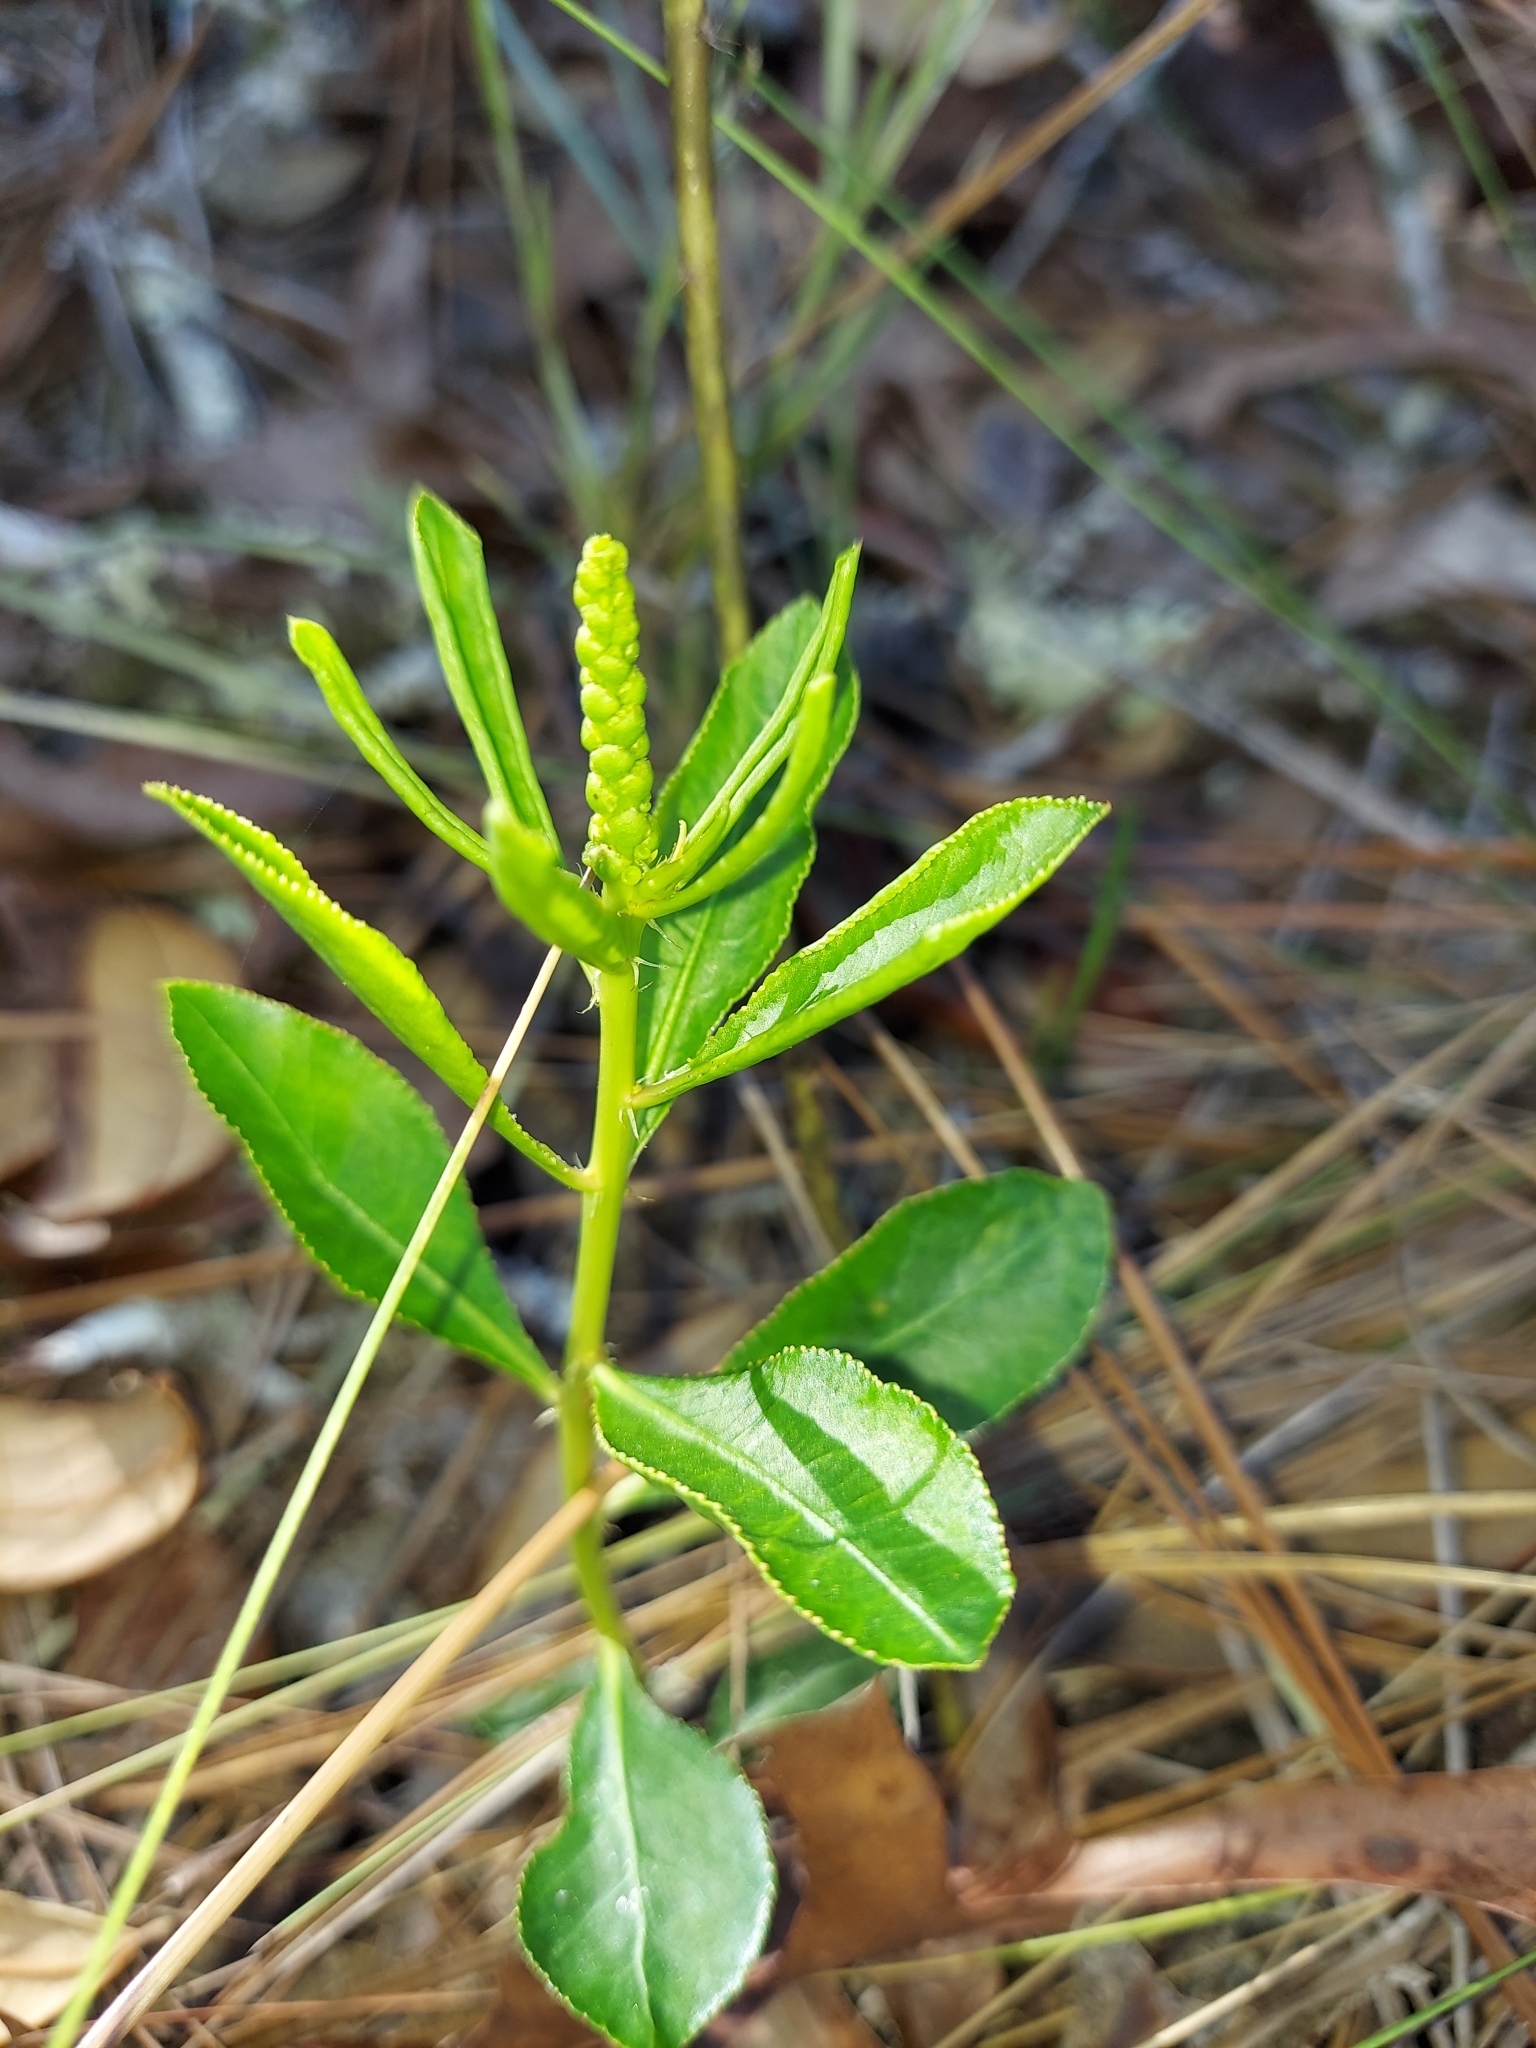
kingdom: Plantae
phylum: Tracheophyta
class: Magnoliopsida
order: Malpighiales
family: Euphorbiaceae
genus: Stillingia
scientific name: Stillingia sylvatica
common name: Queen's-delight
